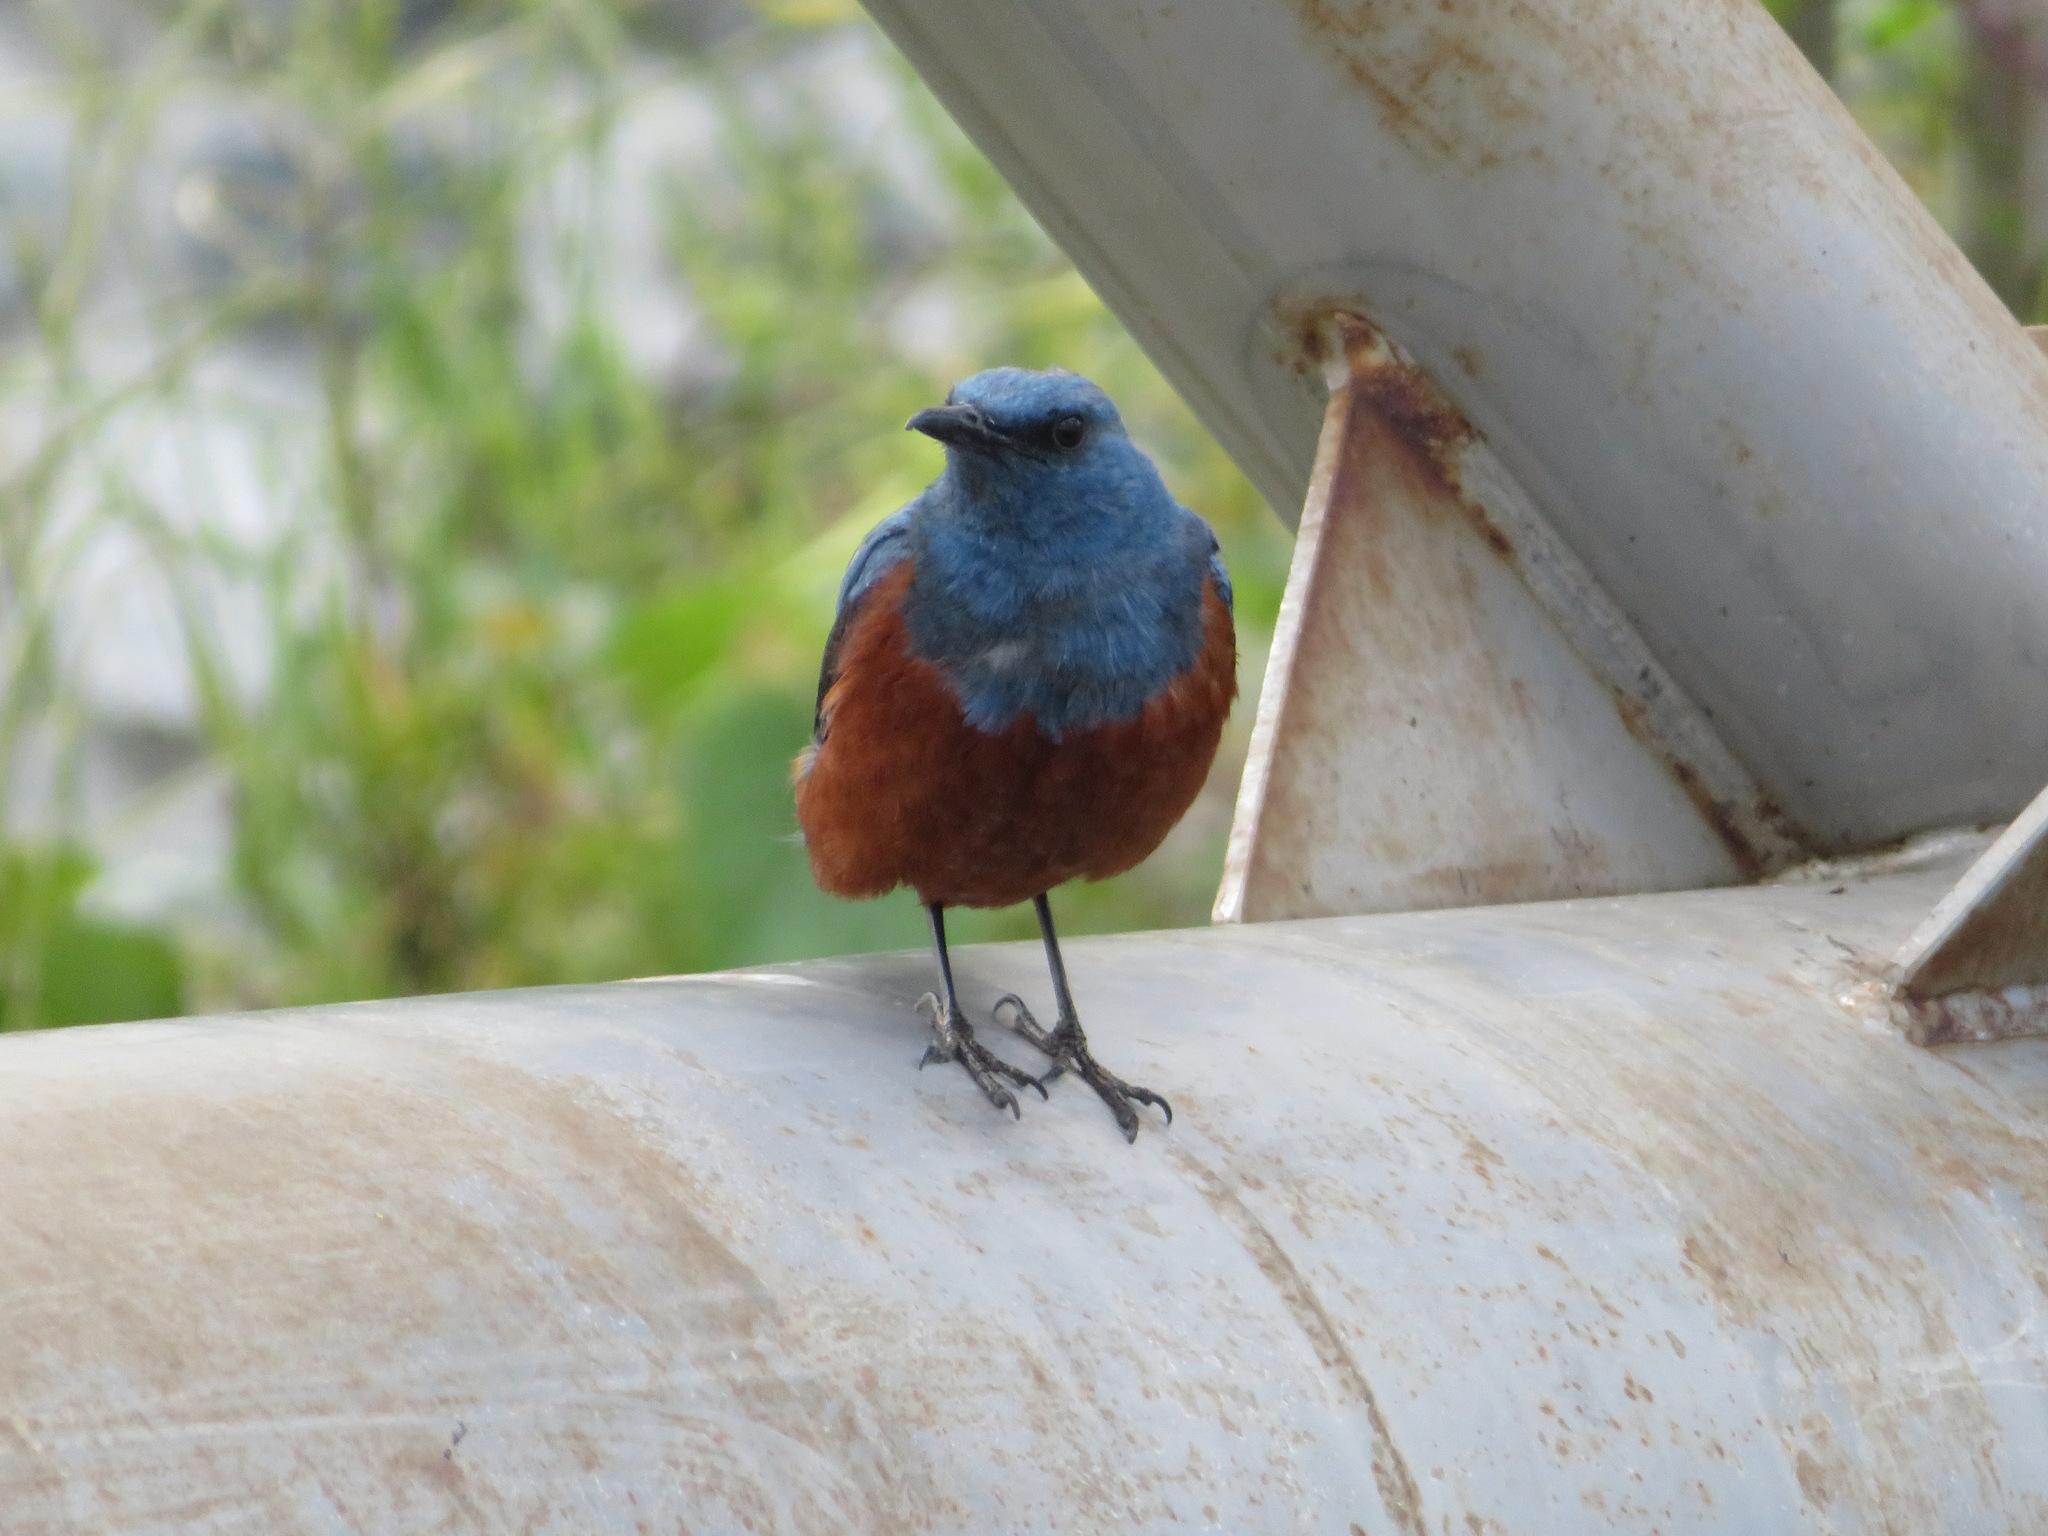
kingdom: Animalia
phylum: Chordata
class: Aves
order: Passeriformes
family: Muscicapidae
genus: Monticola
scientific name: Monticola solitarius
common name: Blue rock thrush
